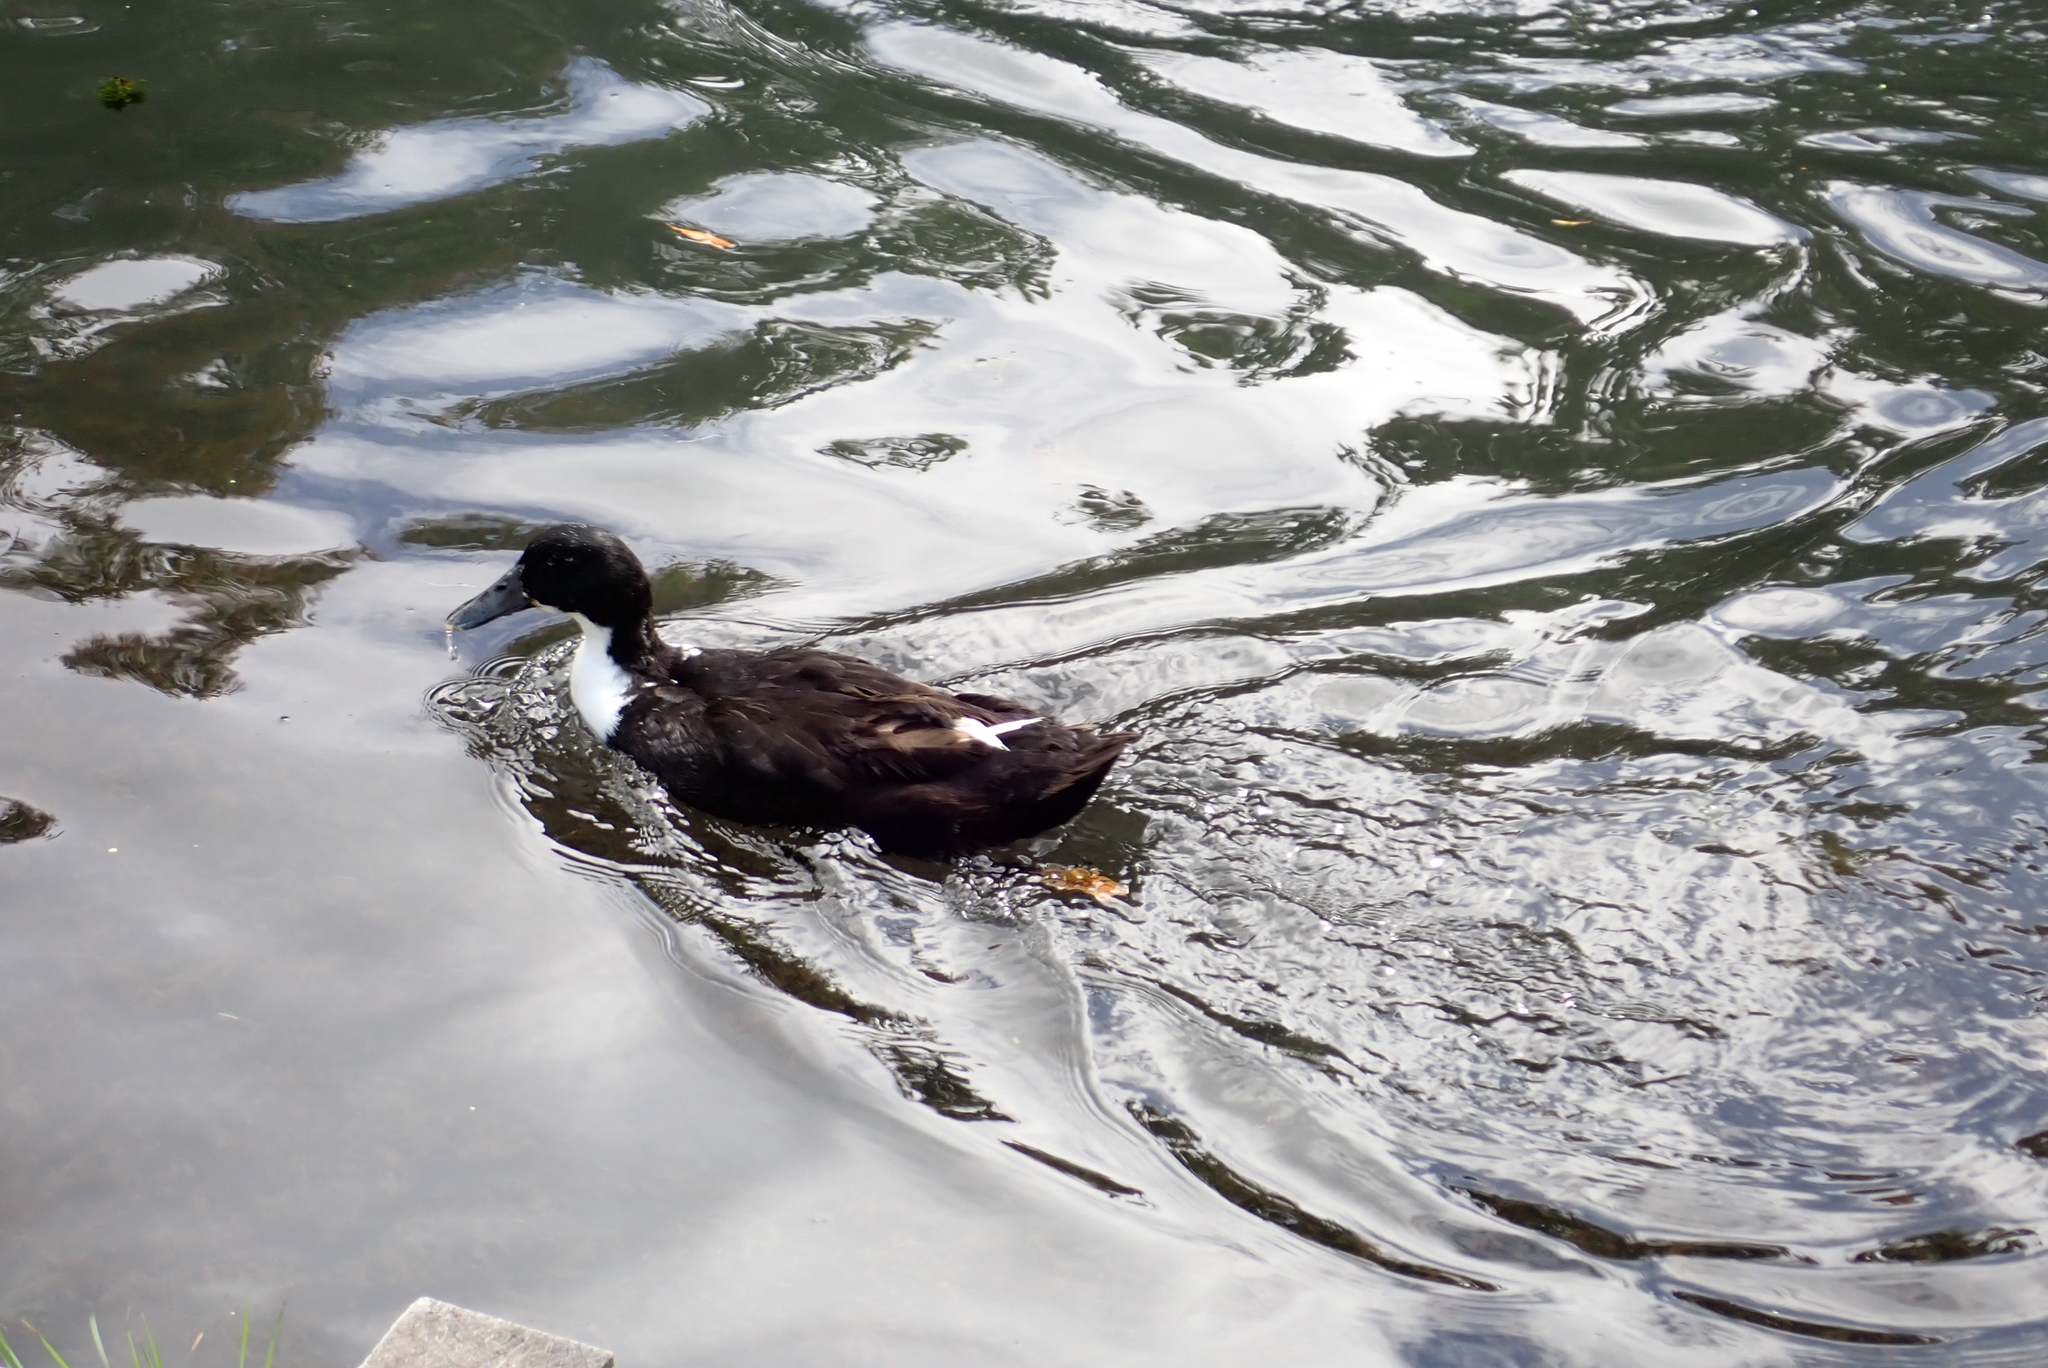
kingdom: Animalia
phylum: Chordata
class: Aves
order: Anseriformes
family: Anatidae
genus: Anas
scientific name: Anas platyrhynchos
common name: Mallard
